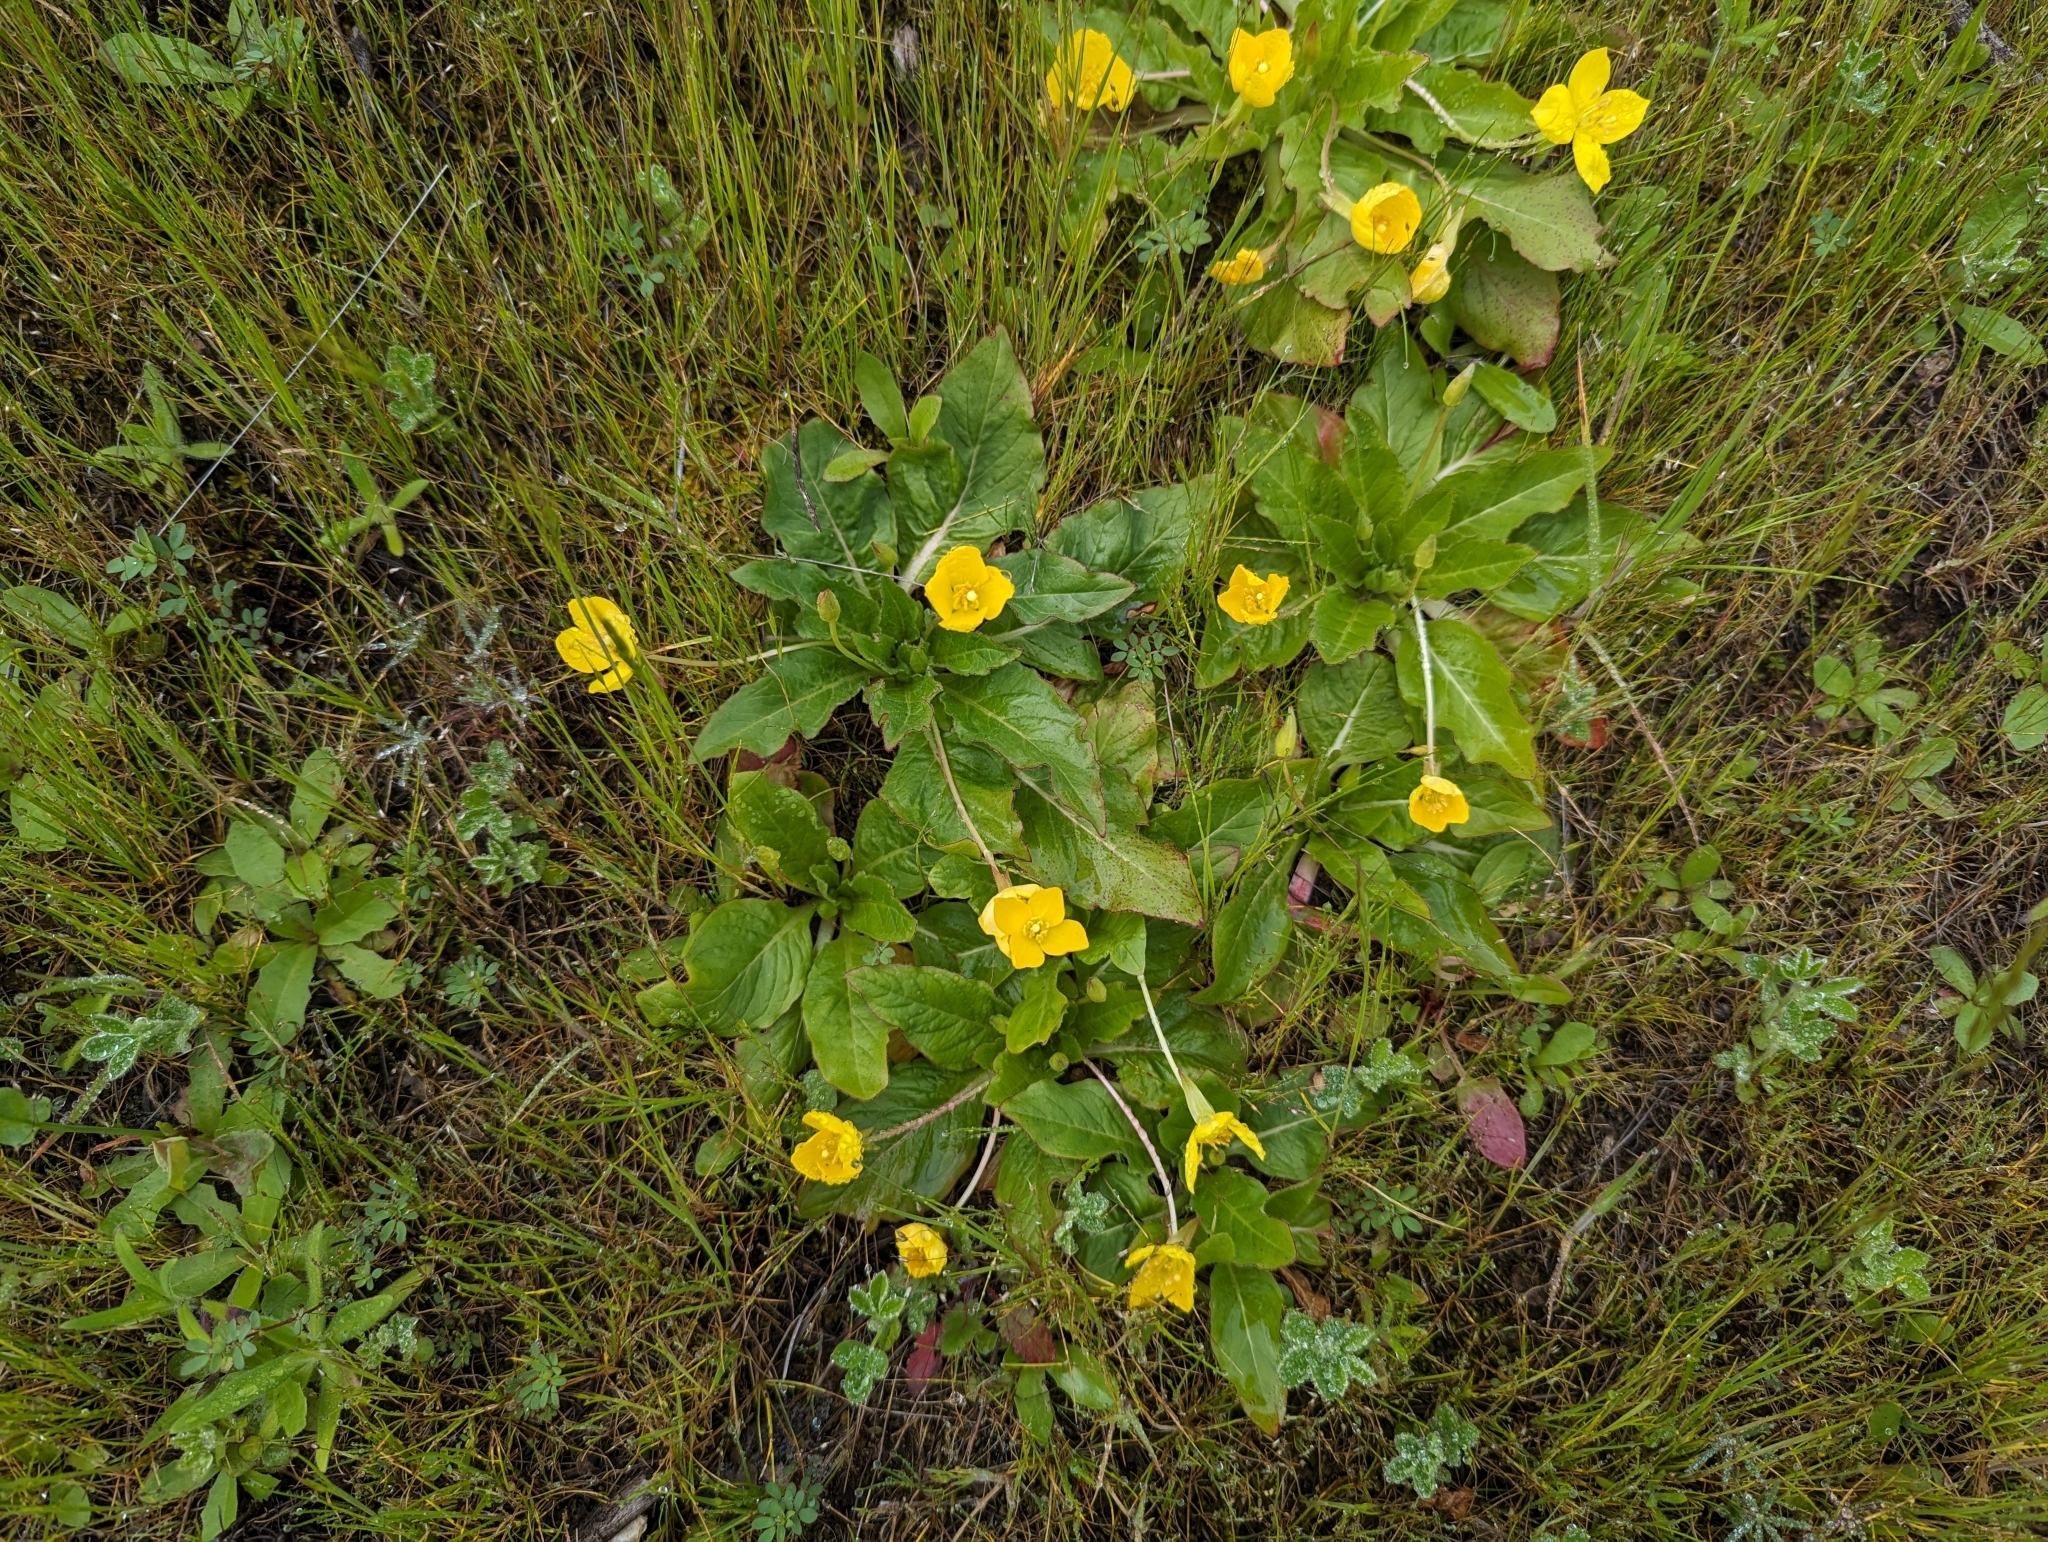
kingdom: Plantae
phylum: Tracheophyta
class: Magnoliopsida
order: Myrtales
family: Onagraceae
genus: Taraxia
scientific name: Taraxia ovata
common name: Goldeneggs
